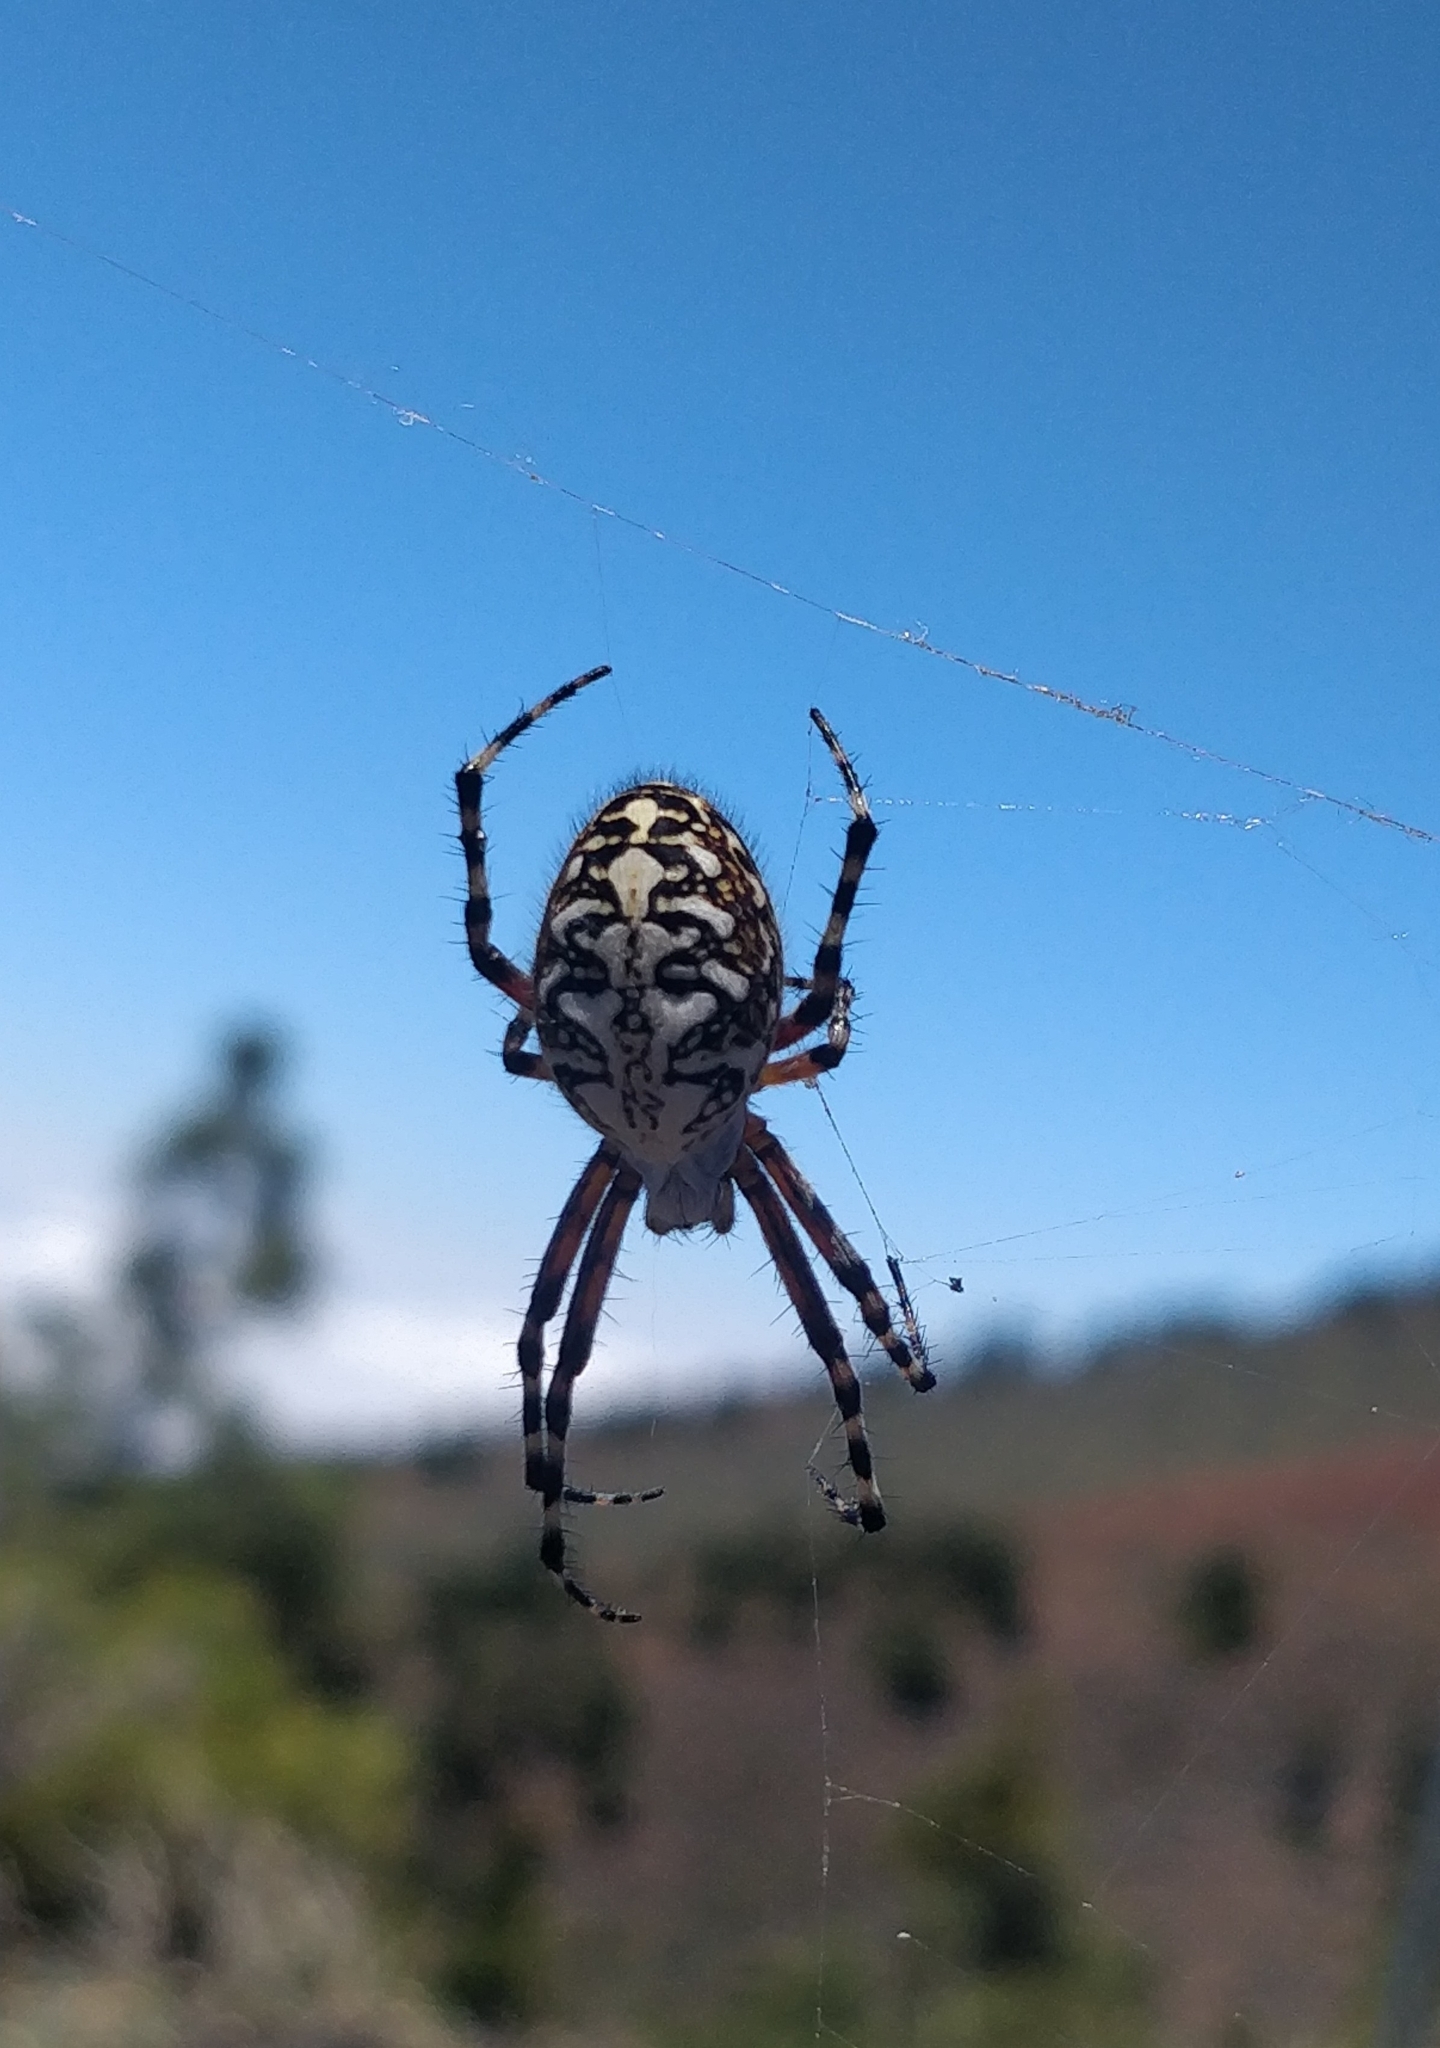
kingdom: Animalia
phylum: Arthropoda
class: Arachnida
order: Araneae
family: Araneidae
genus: Araneus
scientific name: Araneus annulipes
